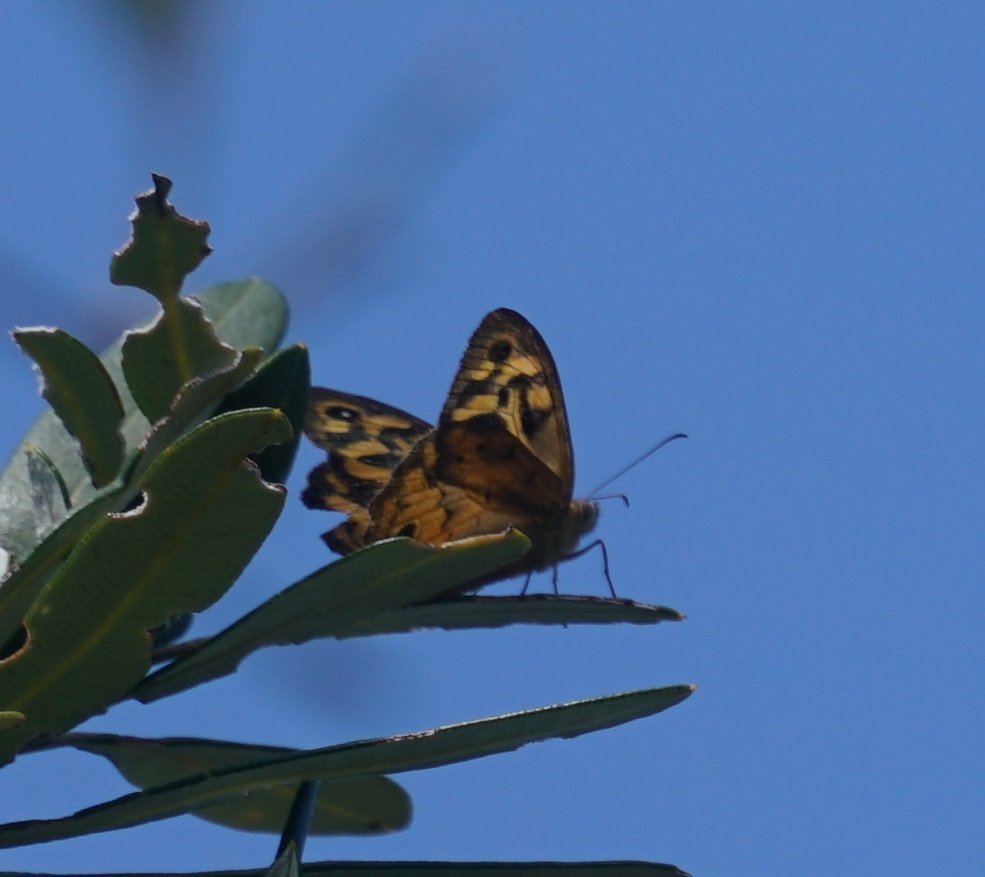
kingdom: Animalia
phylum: Arthropoda
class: Insecta
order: Lepidoptera
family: Nymphalidae
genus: Heteronympha
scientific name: Heteronympha merope
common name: Common brown
